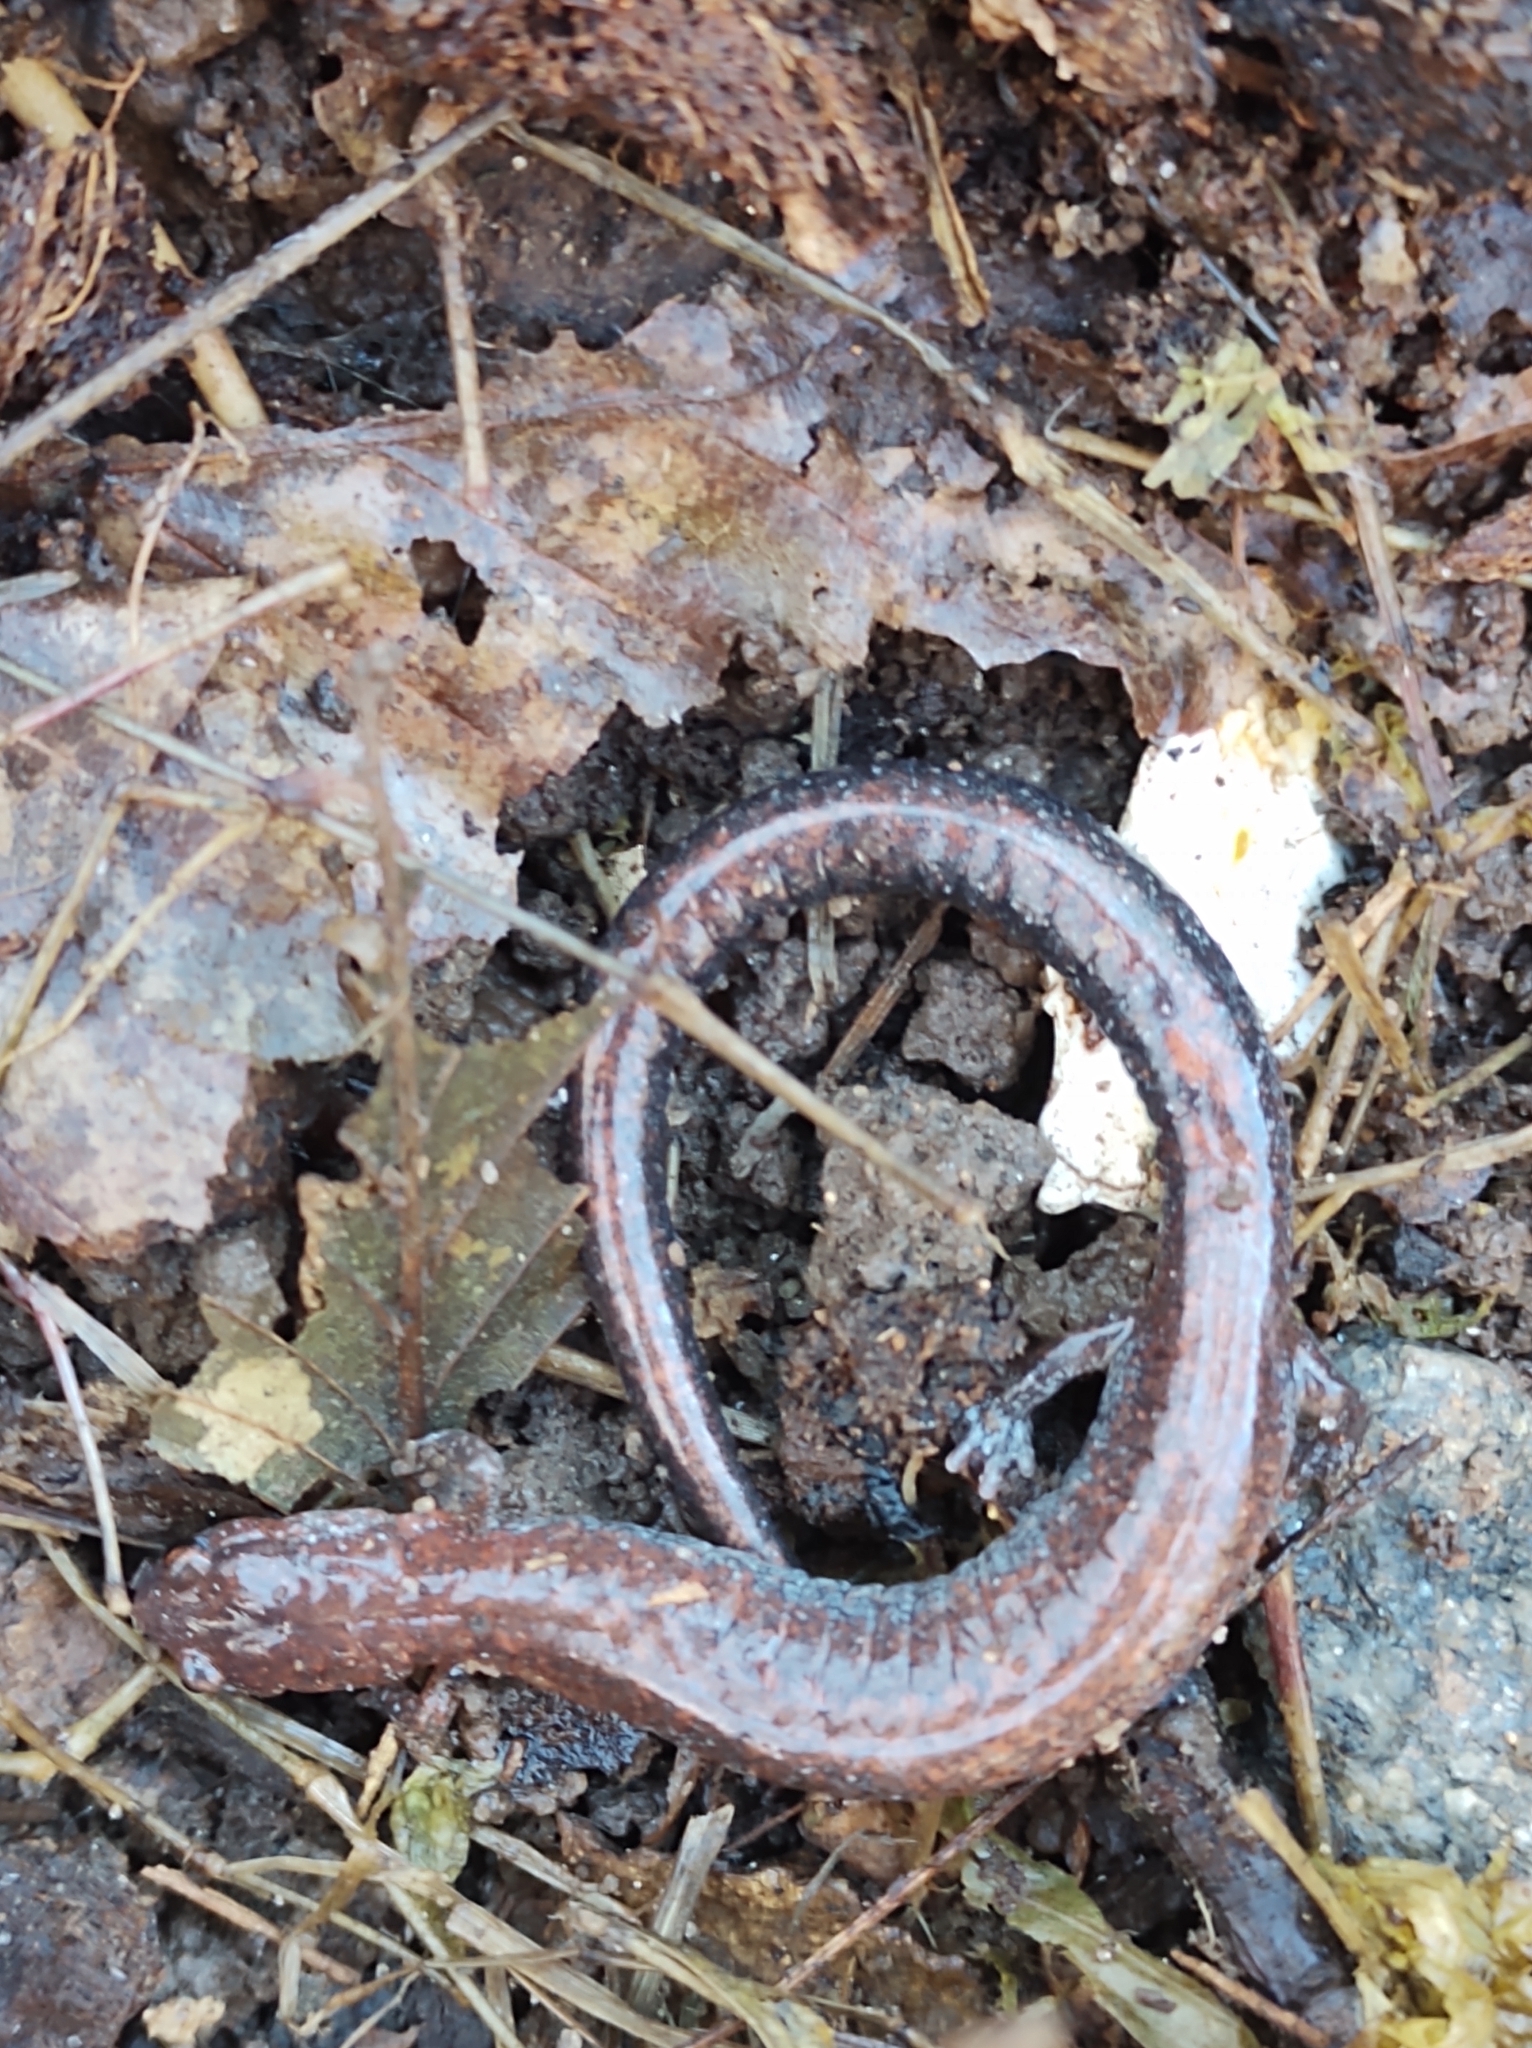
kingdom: Animalia
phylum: Chordata
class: Amphibia
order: Caudata
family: Plethodontidae
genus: Plethodon
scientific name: Plethodon serratus
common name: Southern red-backed salamander
